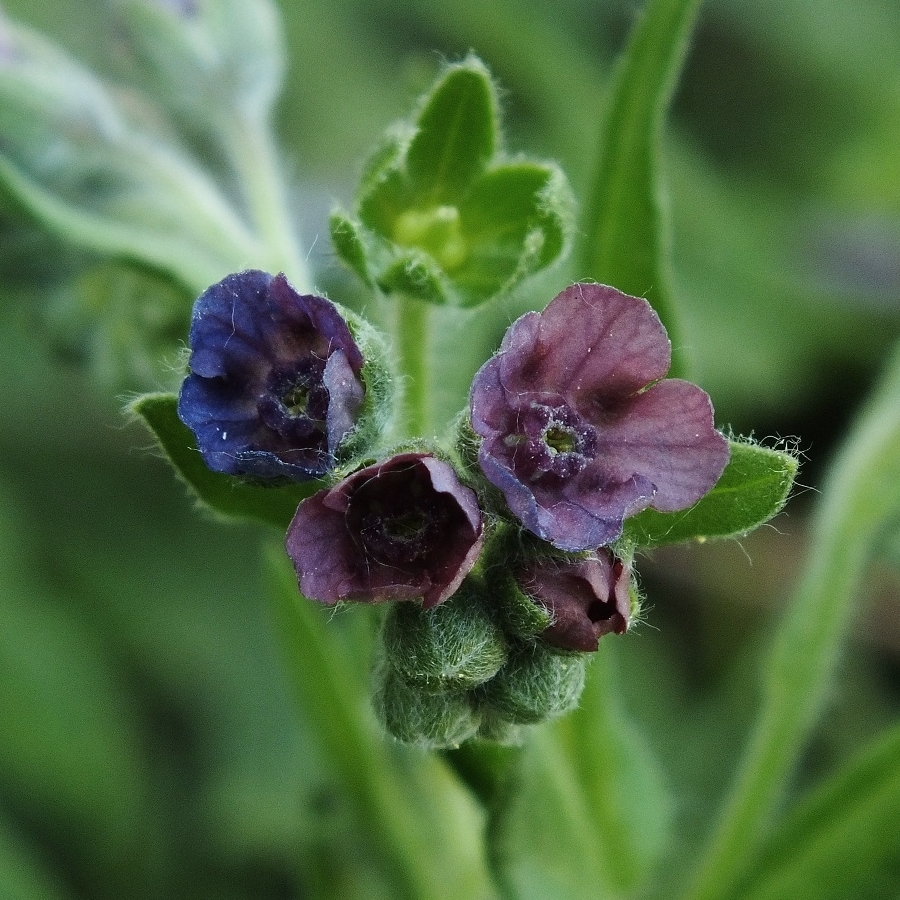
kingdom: Plantae
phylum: Tracheophyta
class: Magnoliopsida
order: Boraginales
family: Boraginaceae
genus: Cynoglossum
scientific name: Cynoglossum officinale
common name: Hound's-tongue
